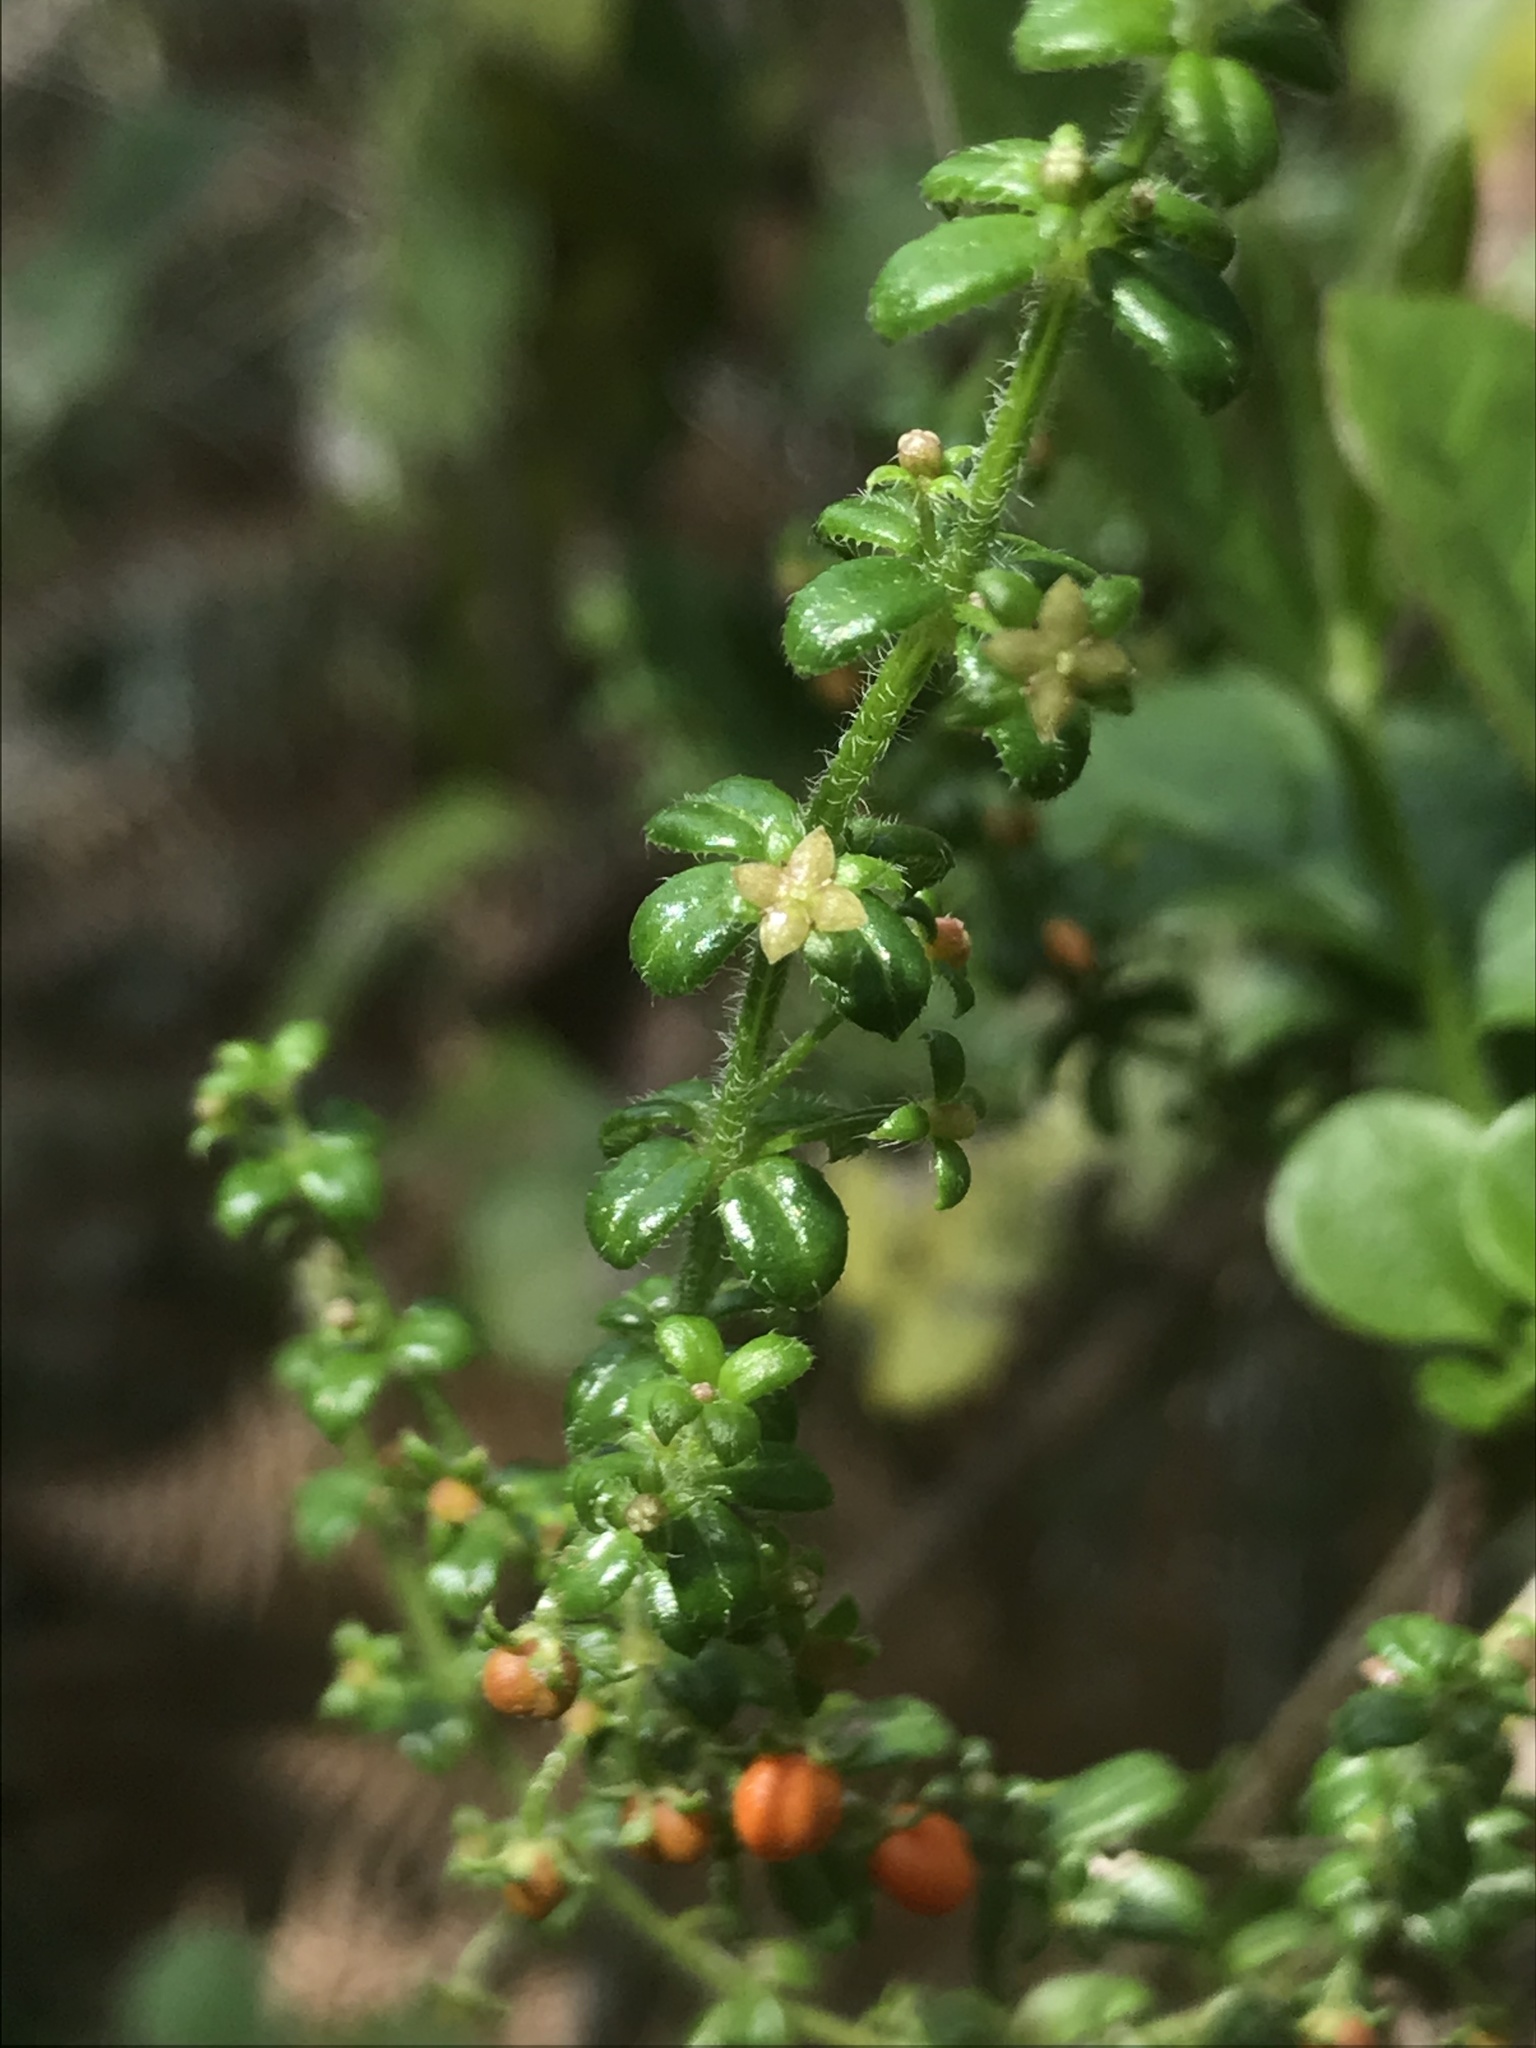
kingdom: Plantae
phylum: Tracheophyta
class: Magnoliopsida
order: Gentianales
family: Rubiaceae
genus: Galium
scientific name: Galium hypocarpium
